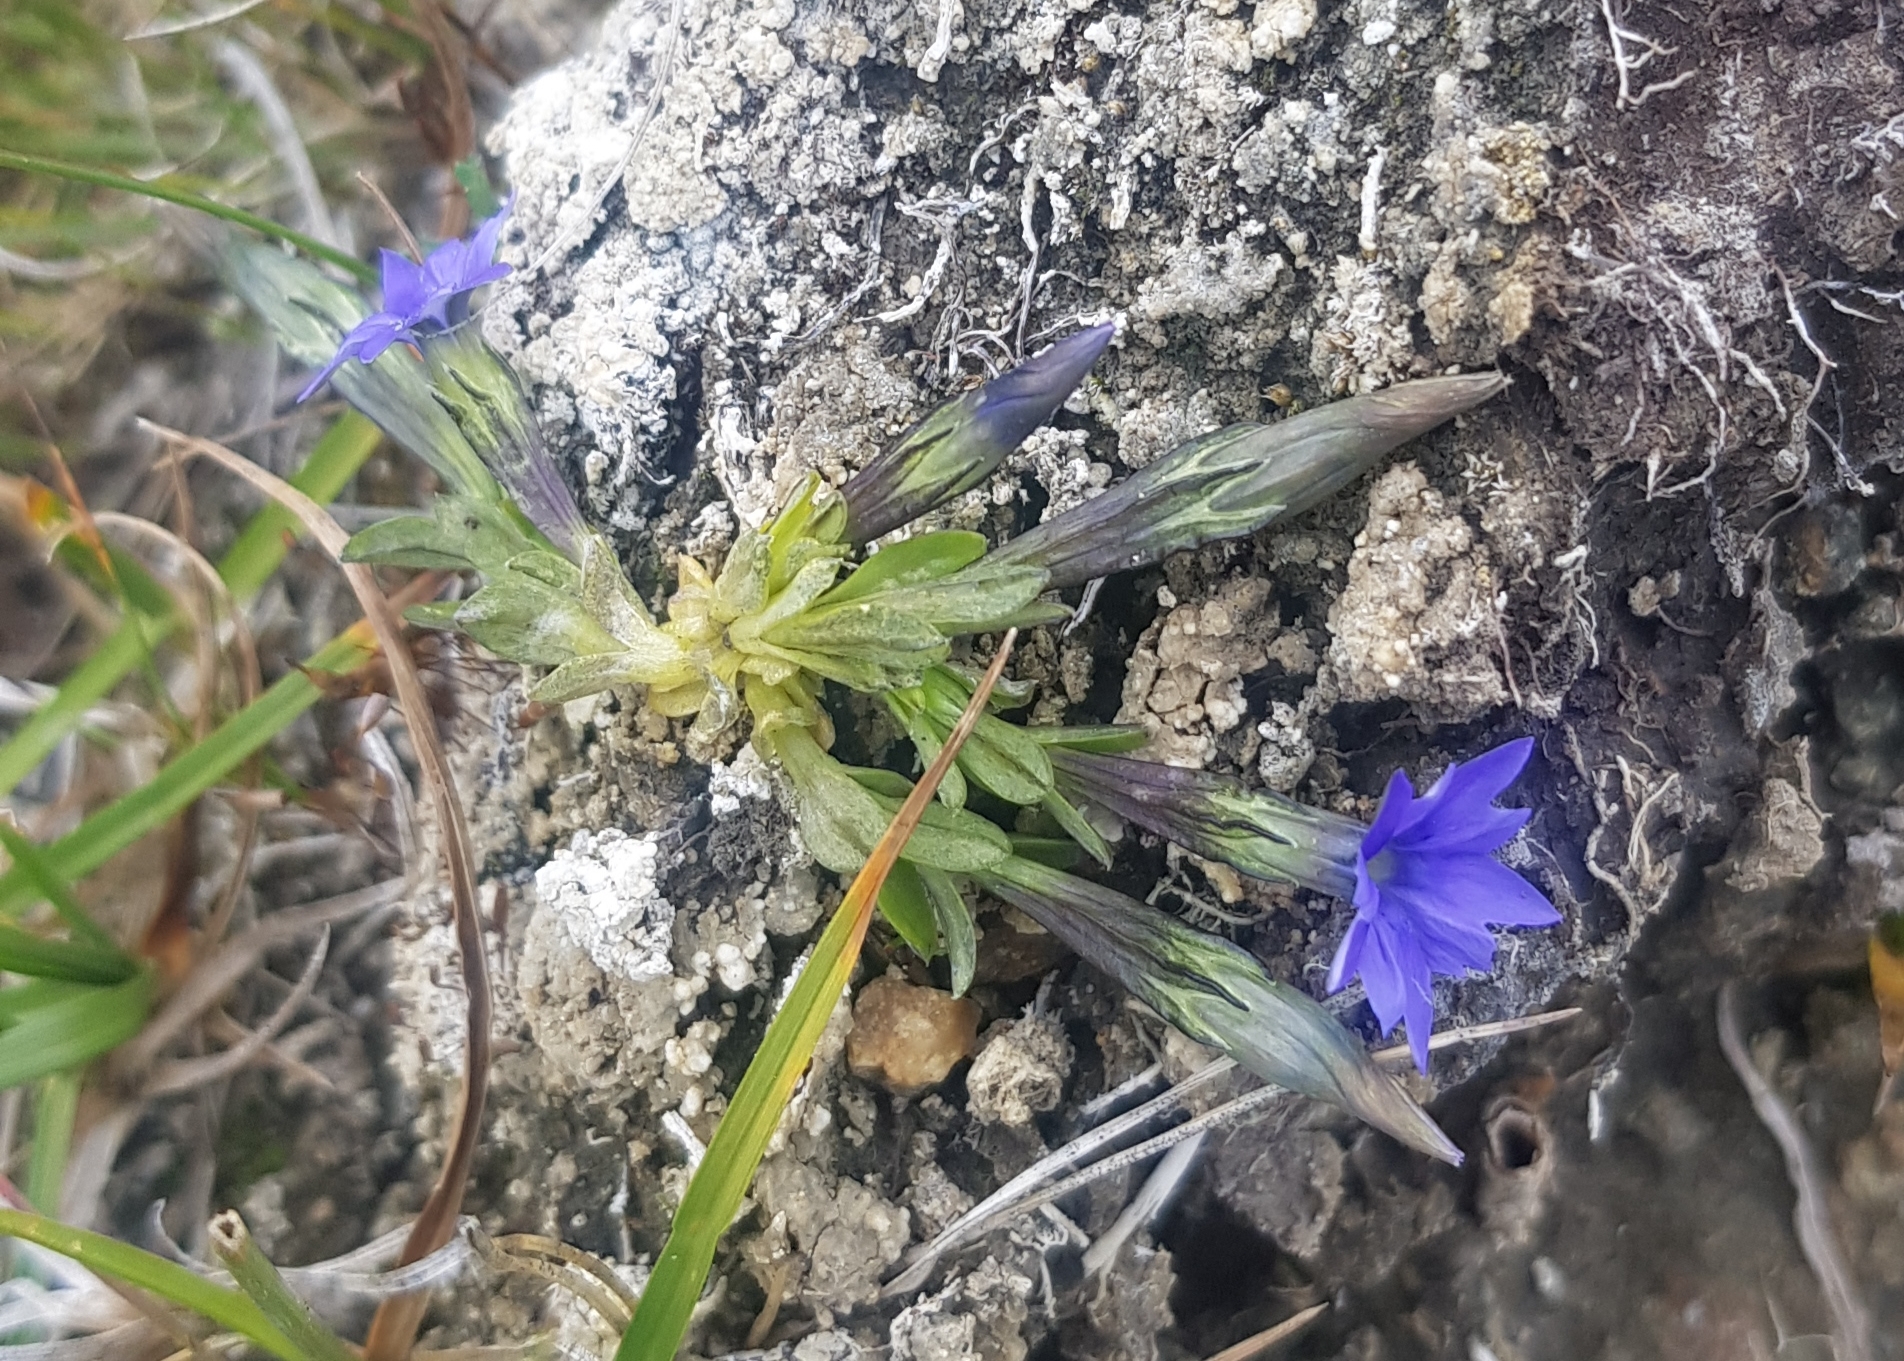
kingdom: Plantae
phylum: Tracheophyta
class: Magnoliopsida
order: Gentianales
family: Gentianaceae
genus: Gentiana
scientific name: Gentiana prostrata
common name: Moss gentian
